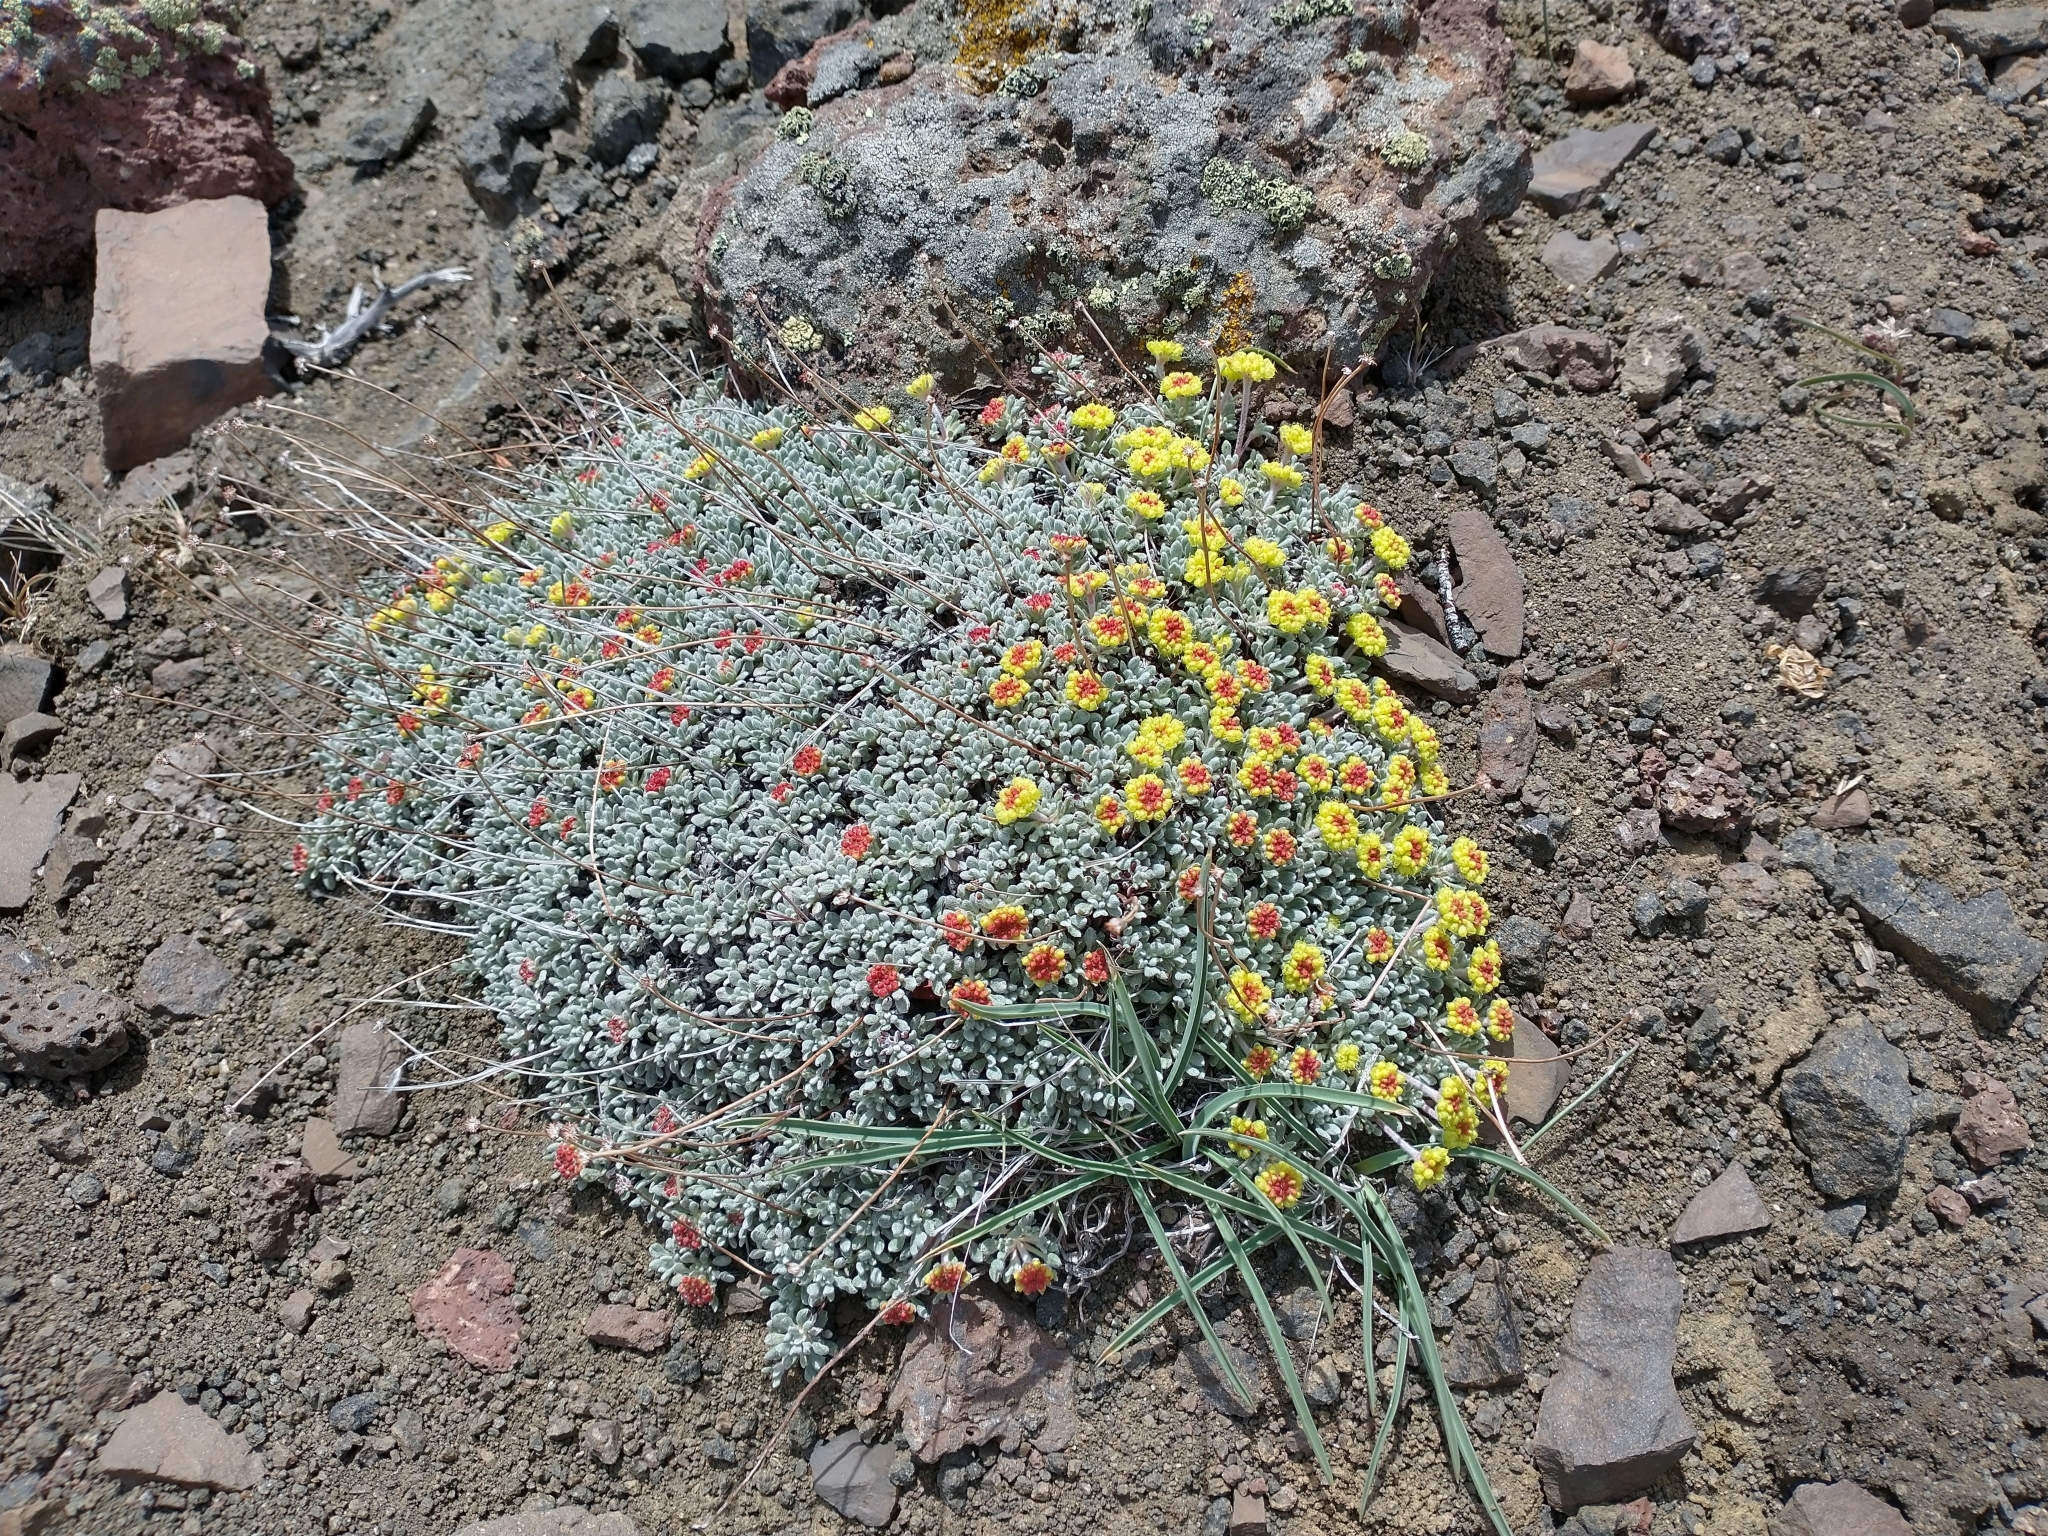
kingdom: Plantae
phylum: Tracheophyta
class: Magnoliopsida
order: Caryophyllales
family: Polygonaceae
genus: Eriogonum
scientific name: Eriogonum caespitosum
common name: Matted wild buckwheat
